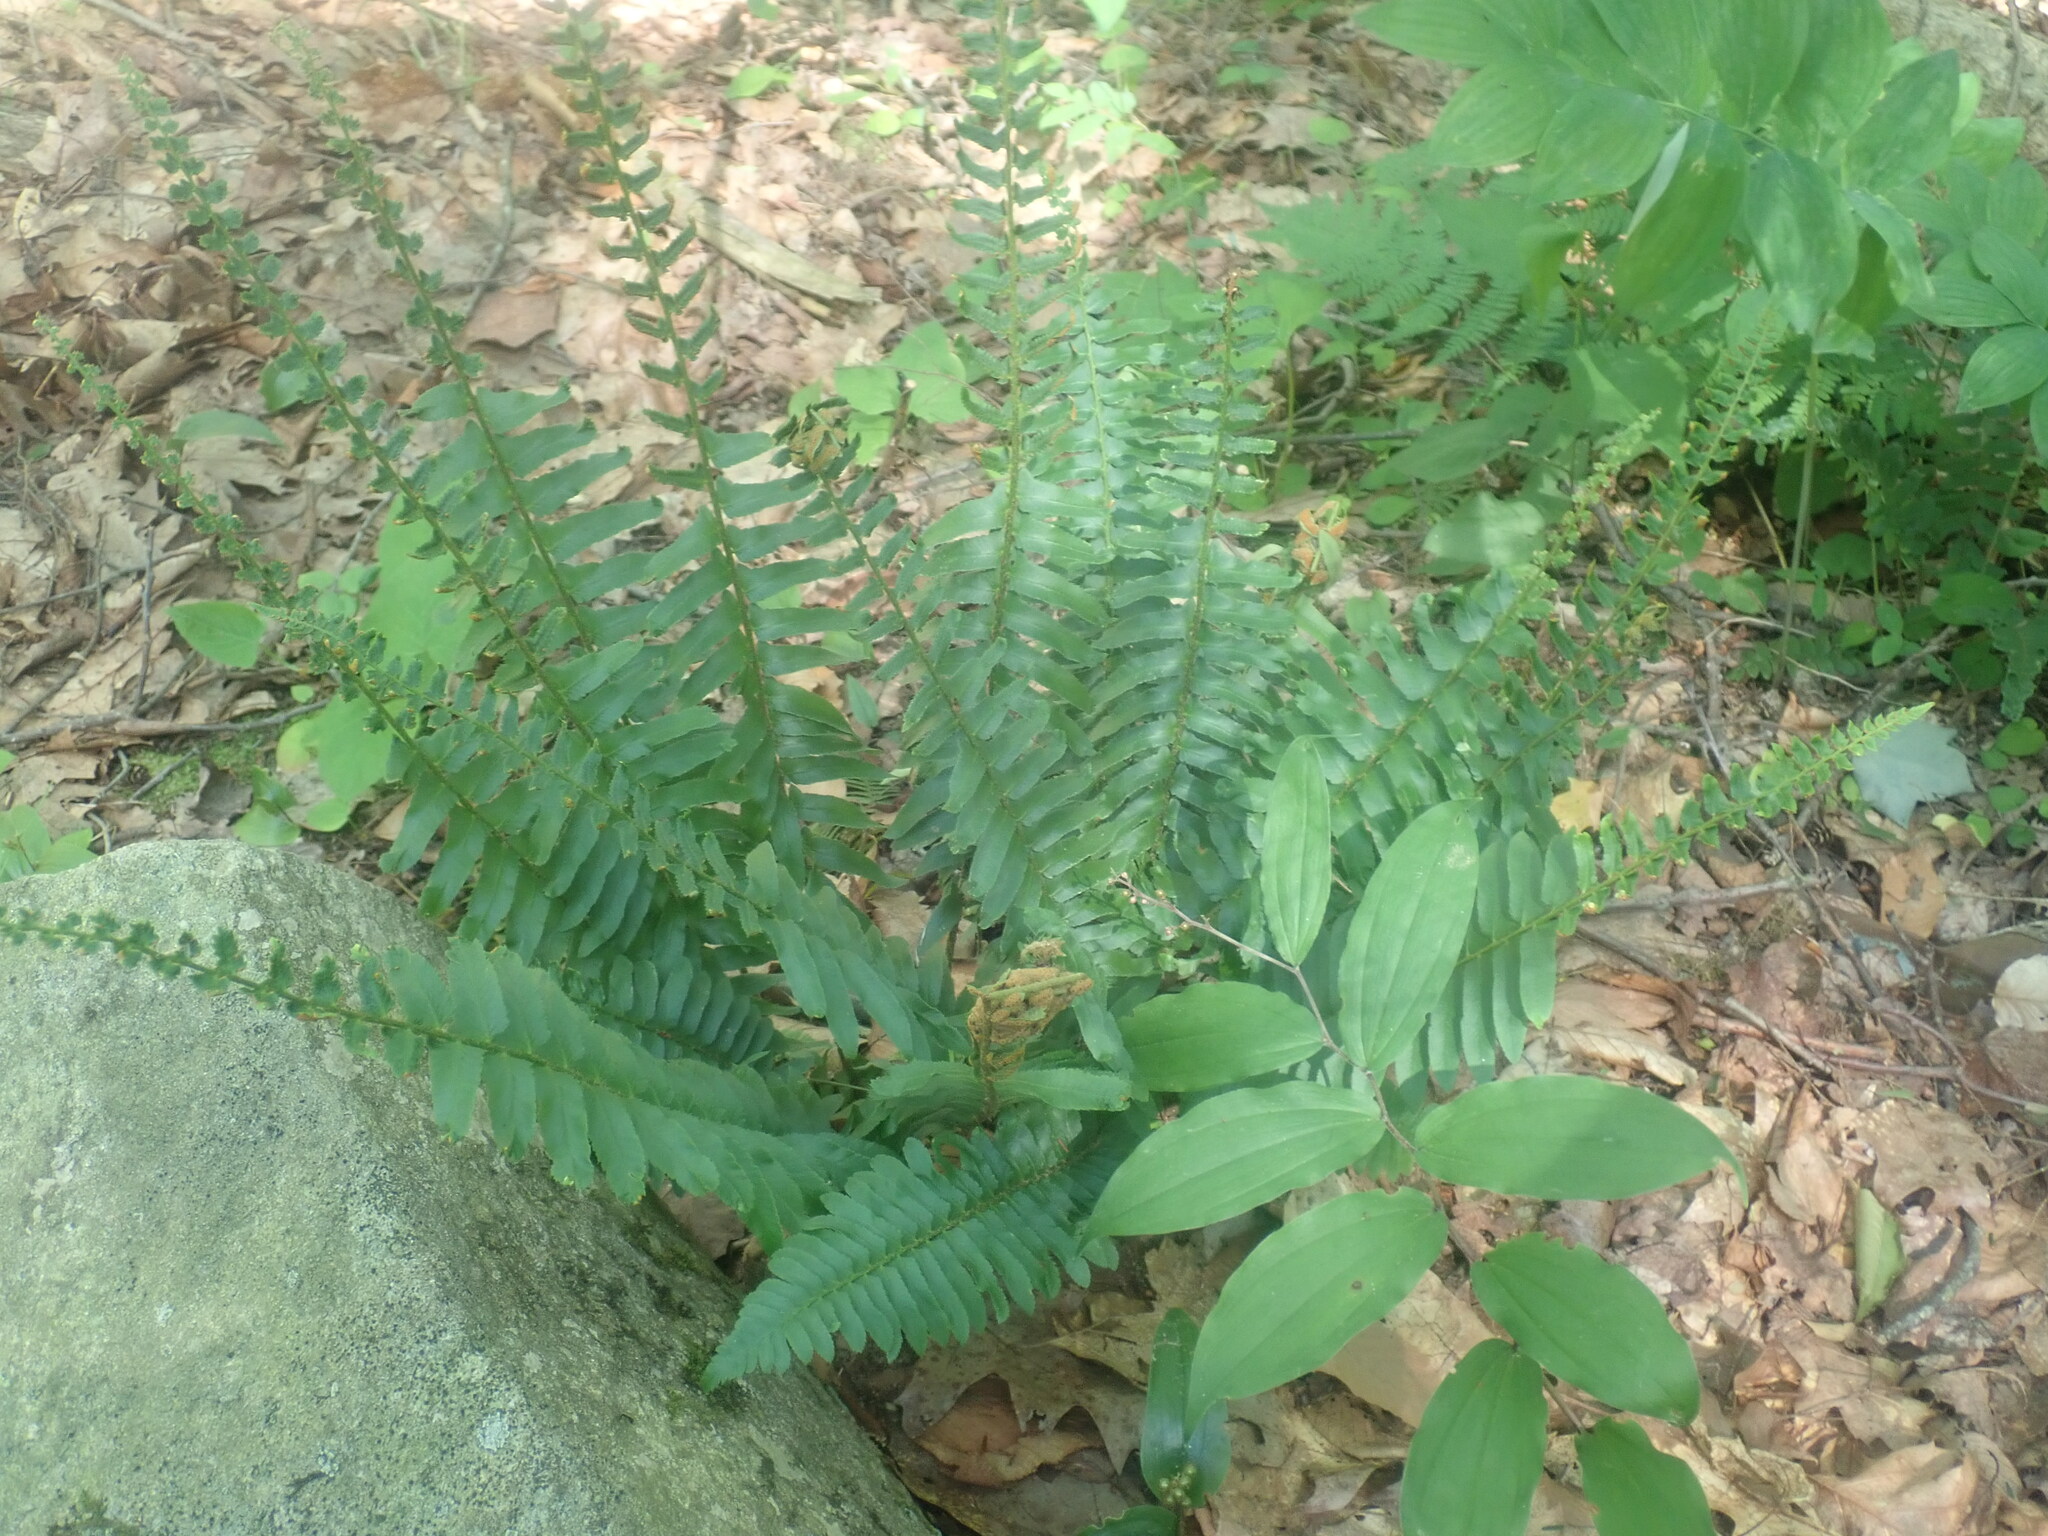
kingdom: Plantae
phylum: Tracheophyta
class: Polypodiopsida
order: Polypodiales
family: Dryopteridaceae
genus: Polystichum
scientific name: Polystichum acrostichoides
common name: Christmas fern
